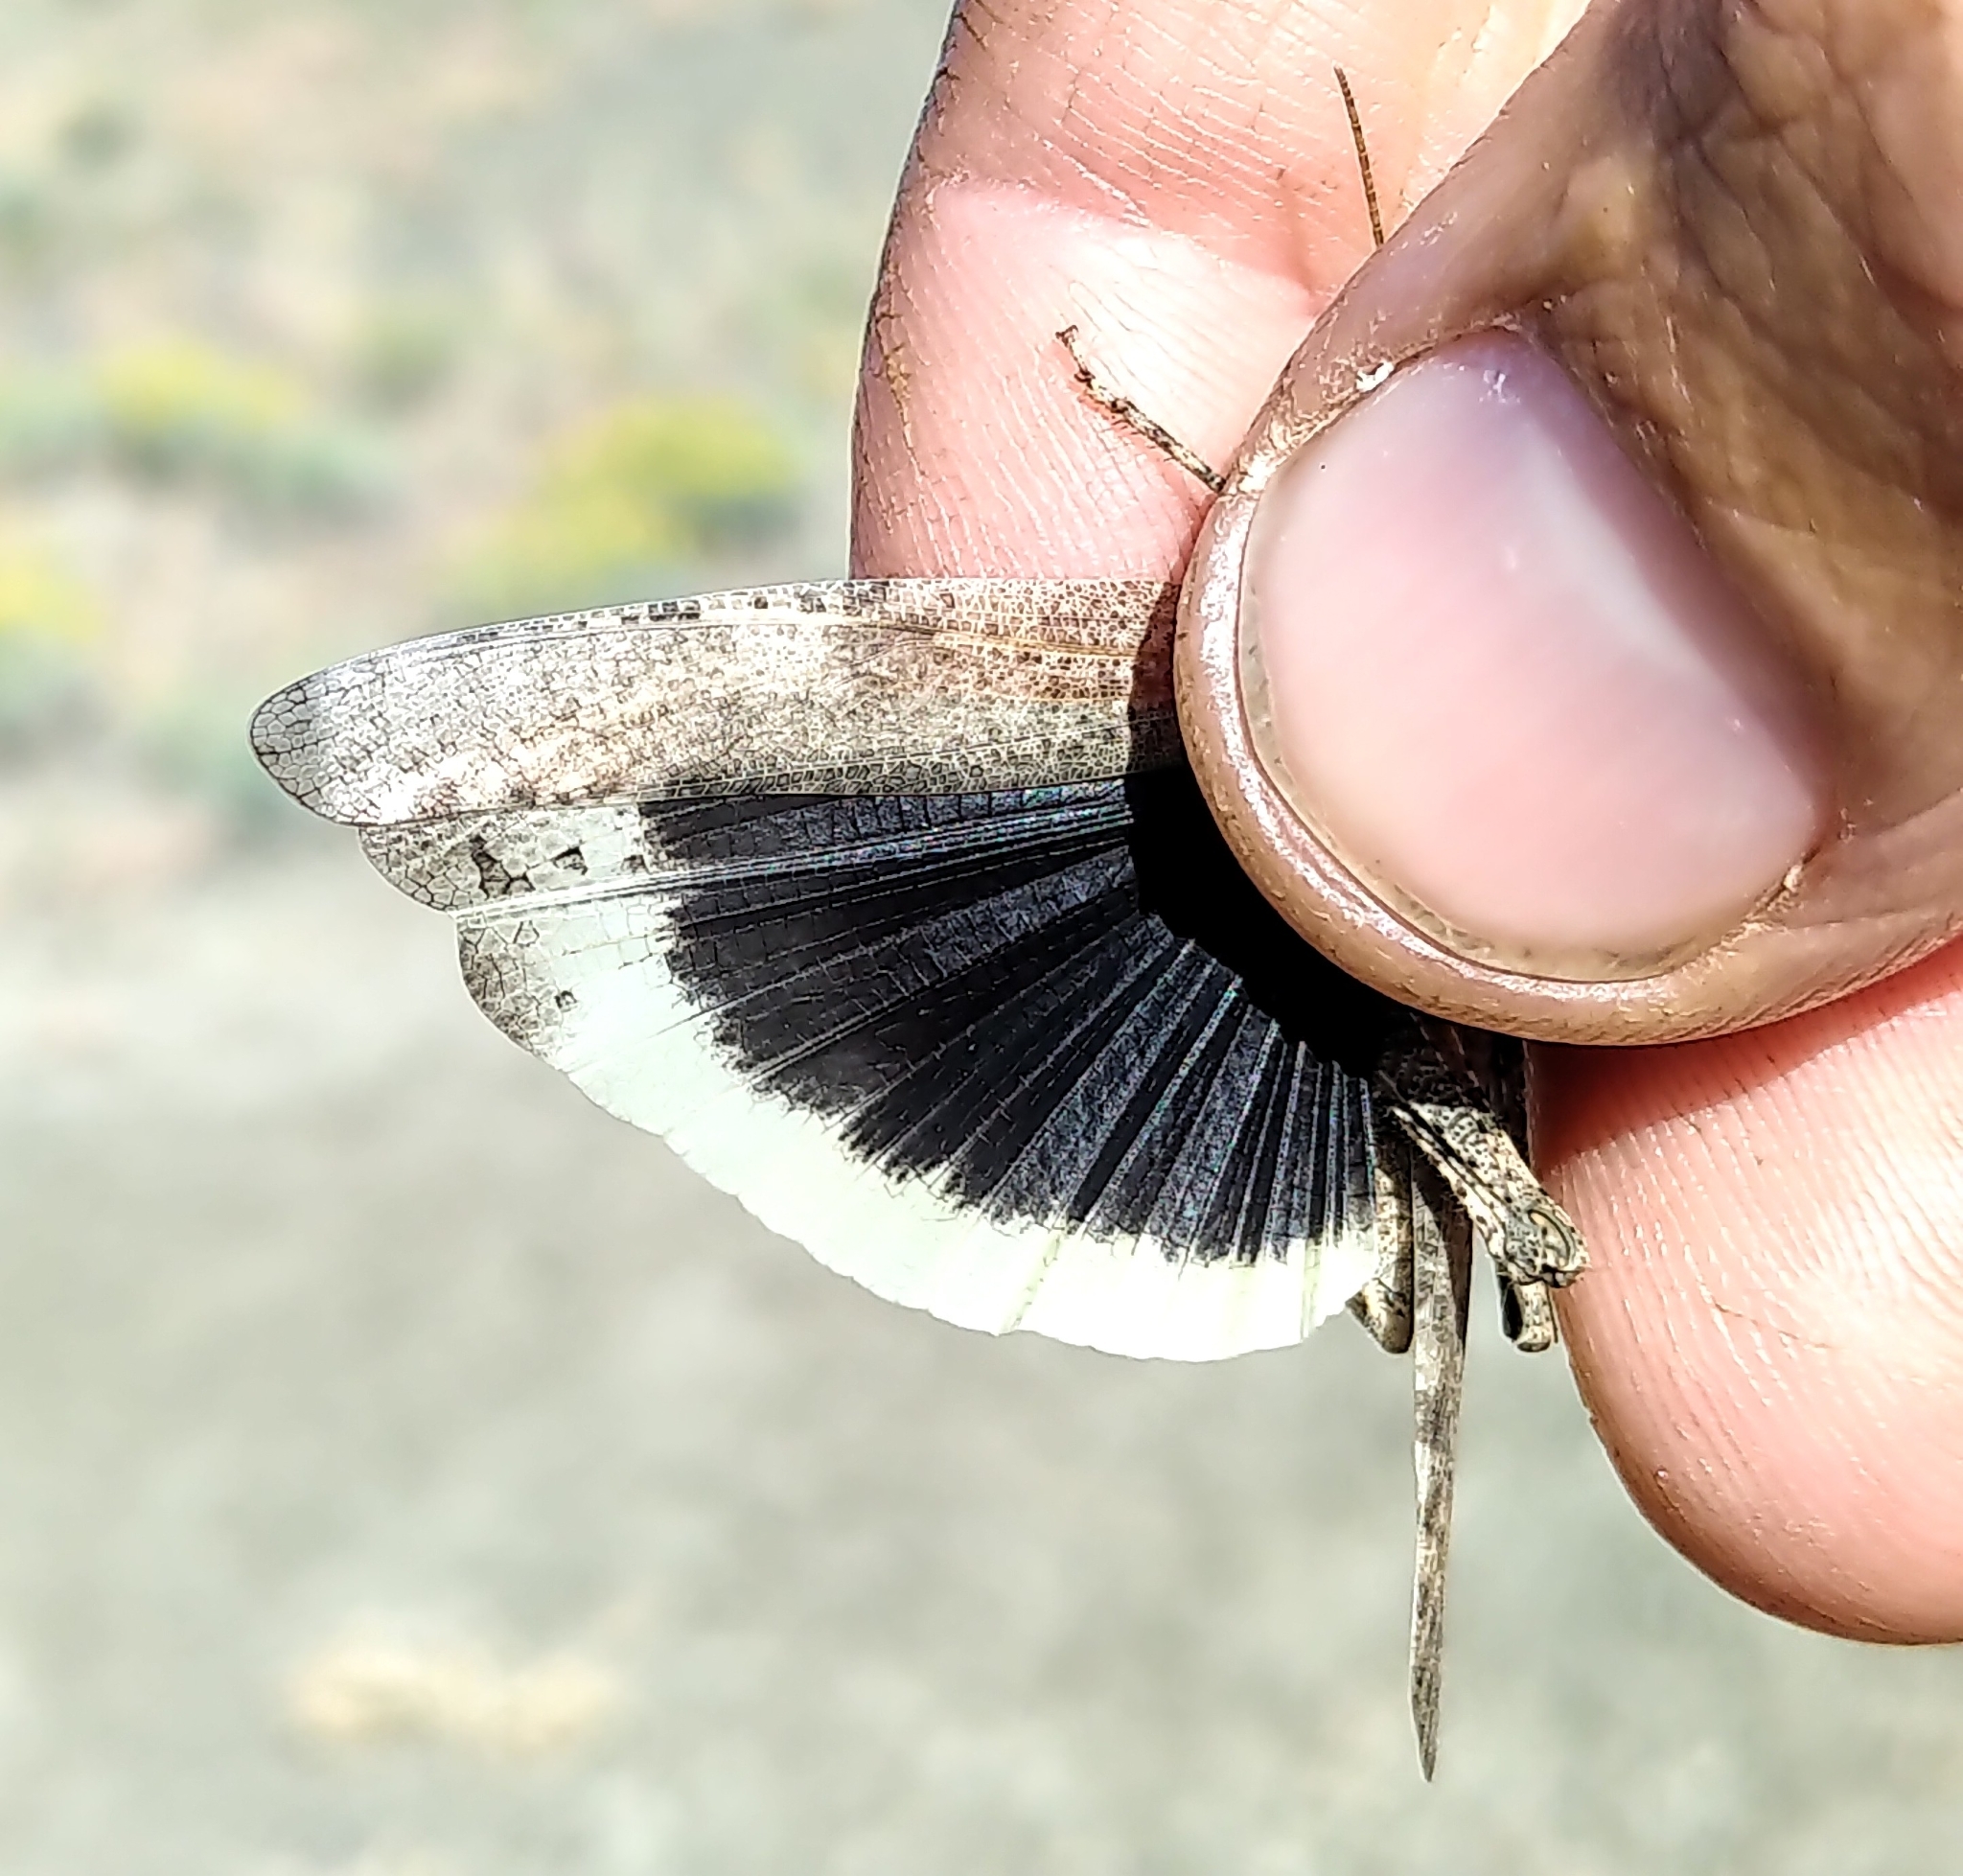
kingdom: Animalia
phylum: Arthropoda
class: Insecta
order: Orthoptera
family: Acrididae
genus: Dissosteira
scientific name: Dissosteira carolina
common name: Carolina grasshopper
